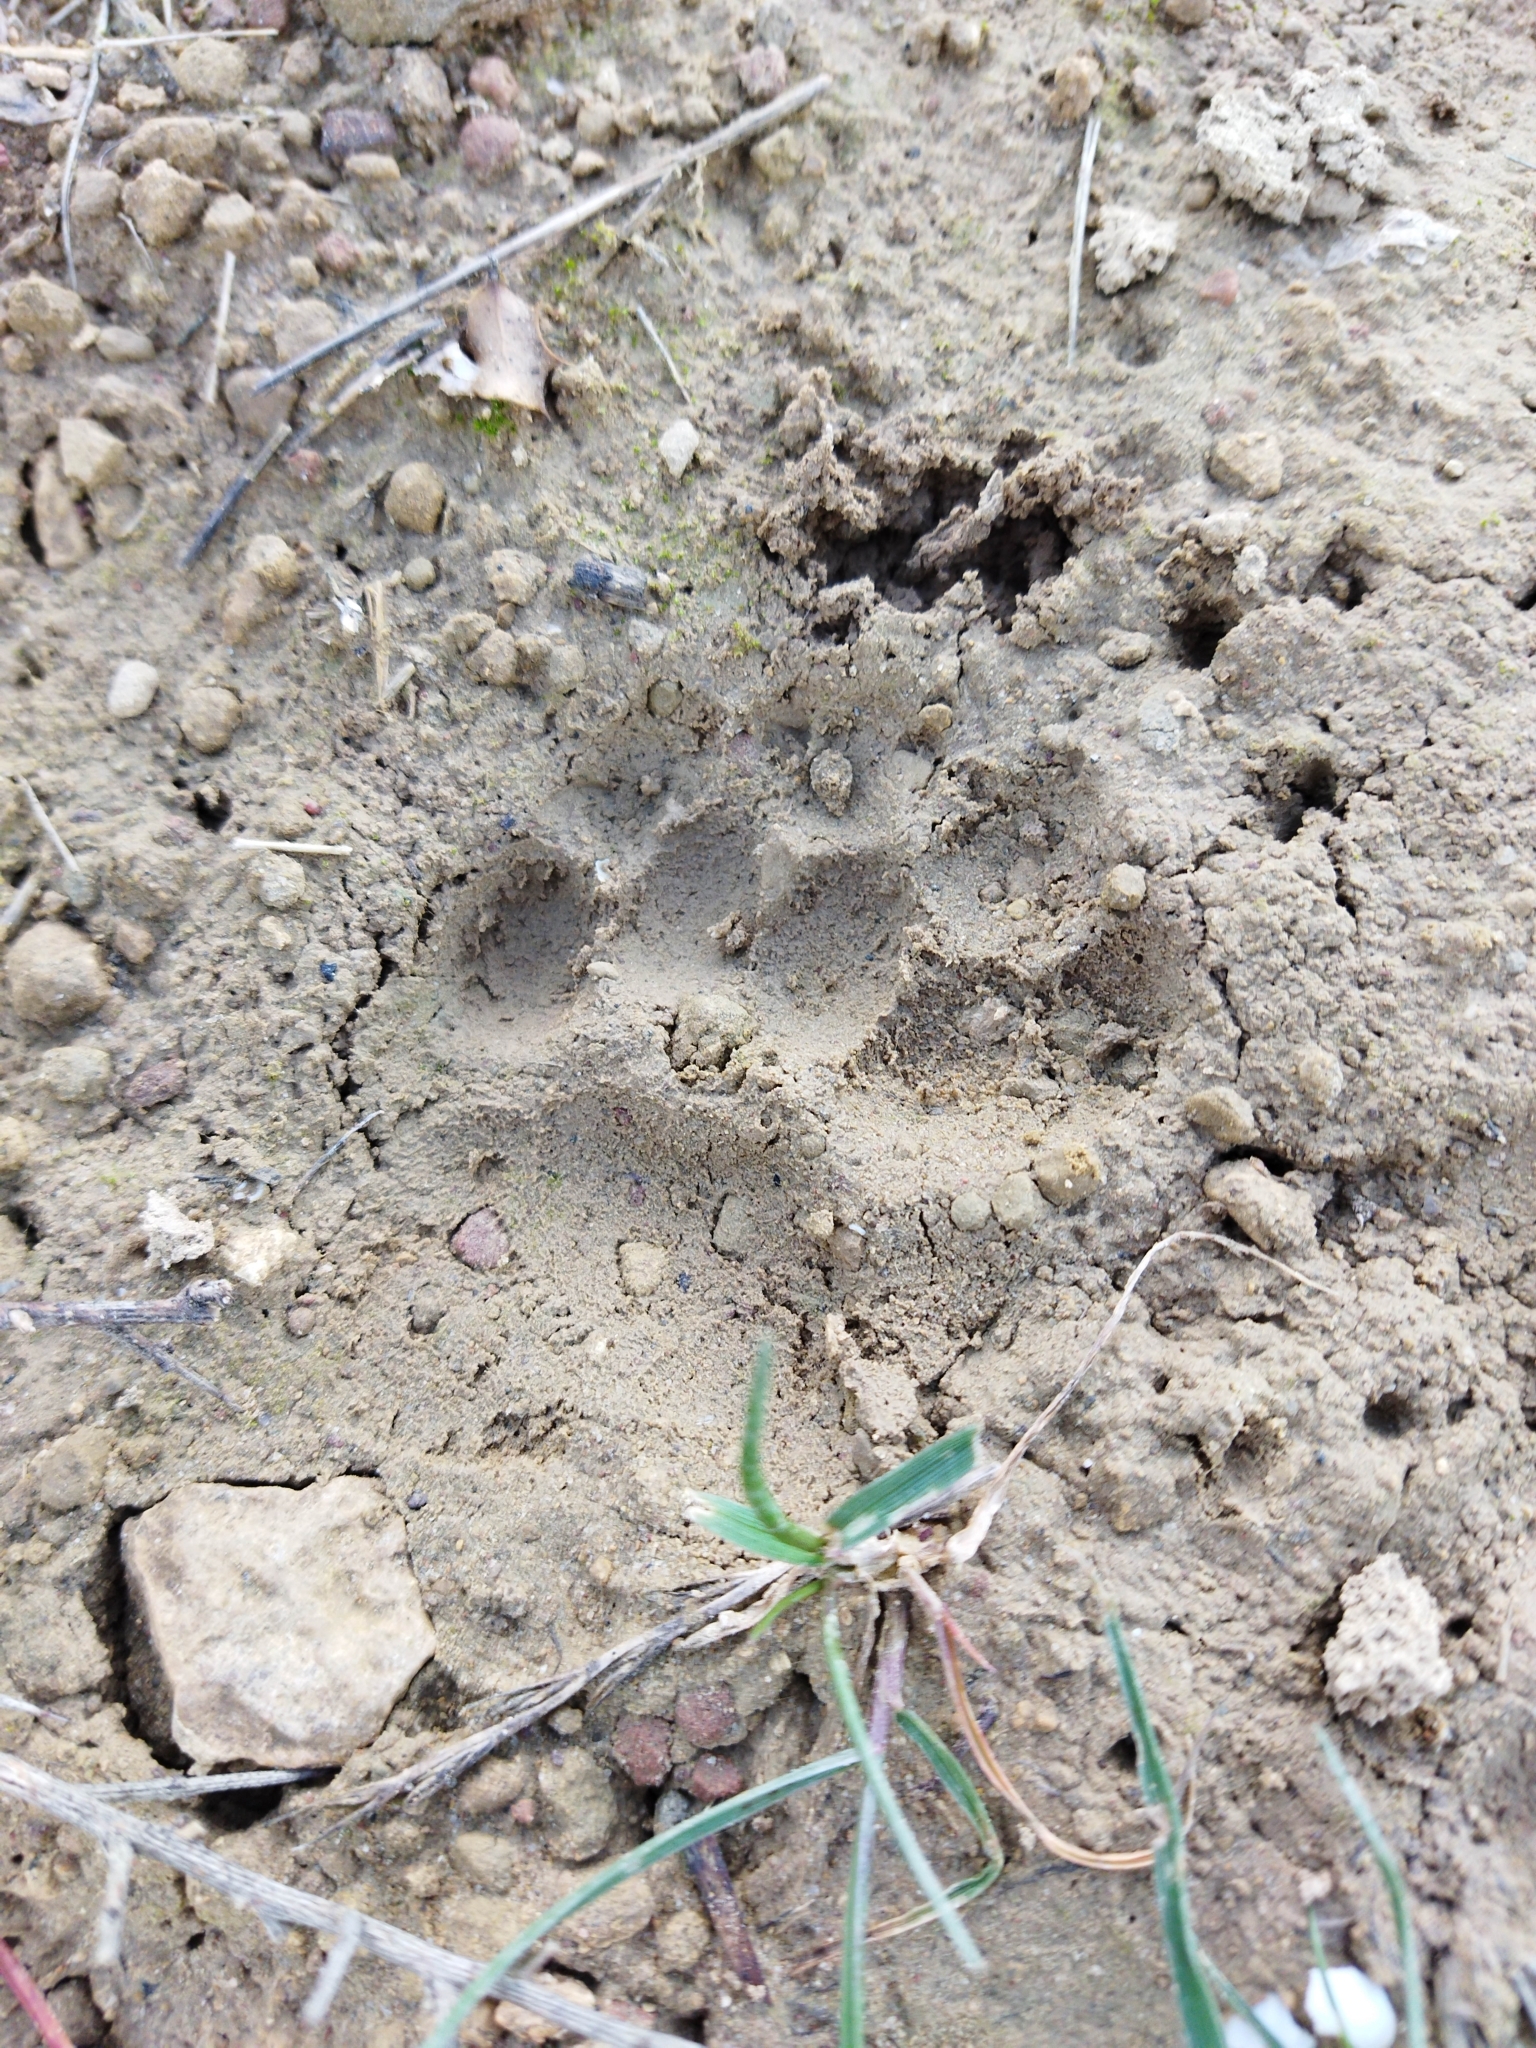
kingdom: Animalia
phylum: Chordata
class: Mammalia
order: Carnivora
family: Mustelidae
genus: Meles
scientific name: Meles meles
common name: Eurasian badger
